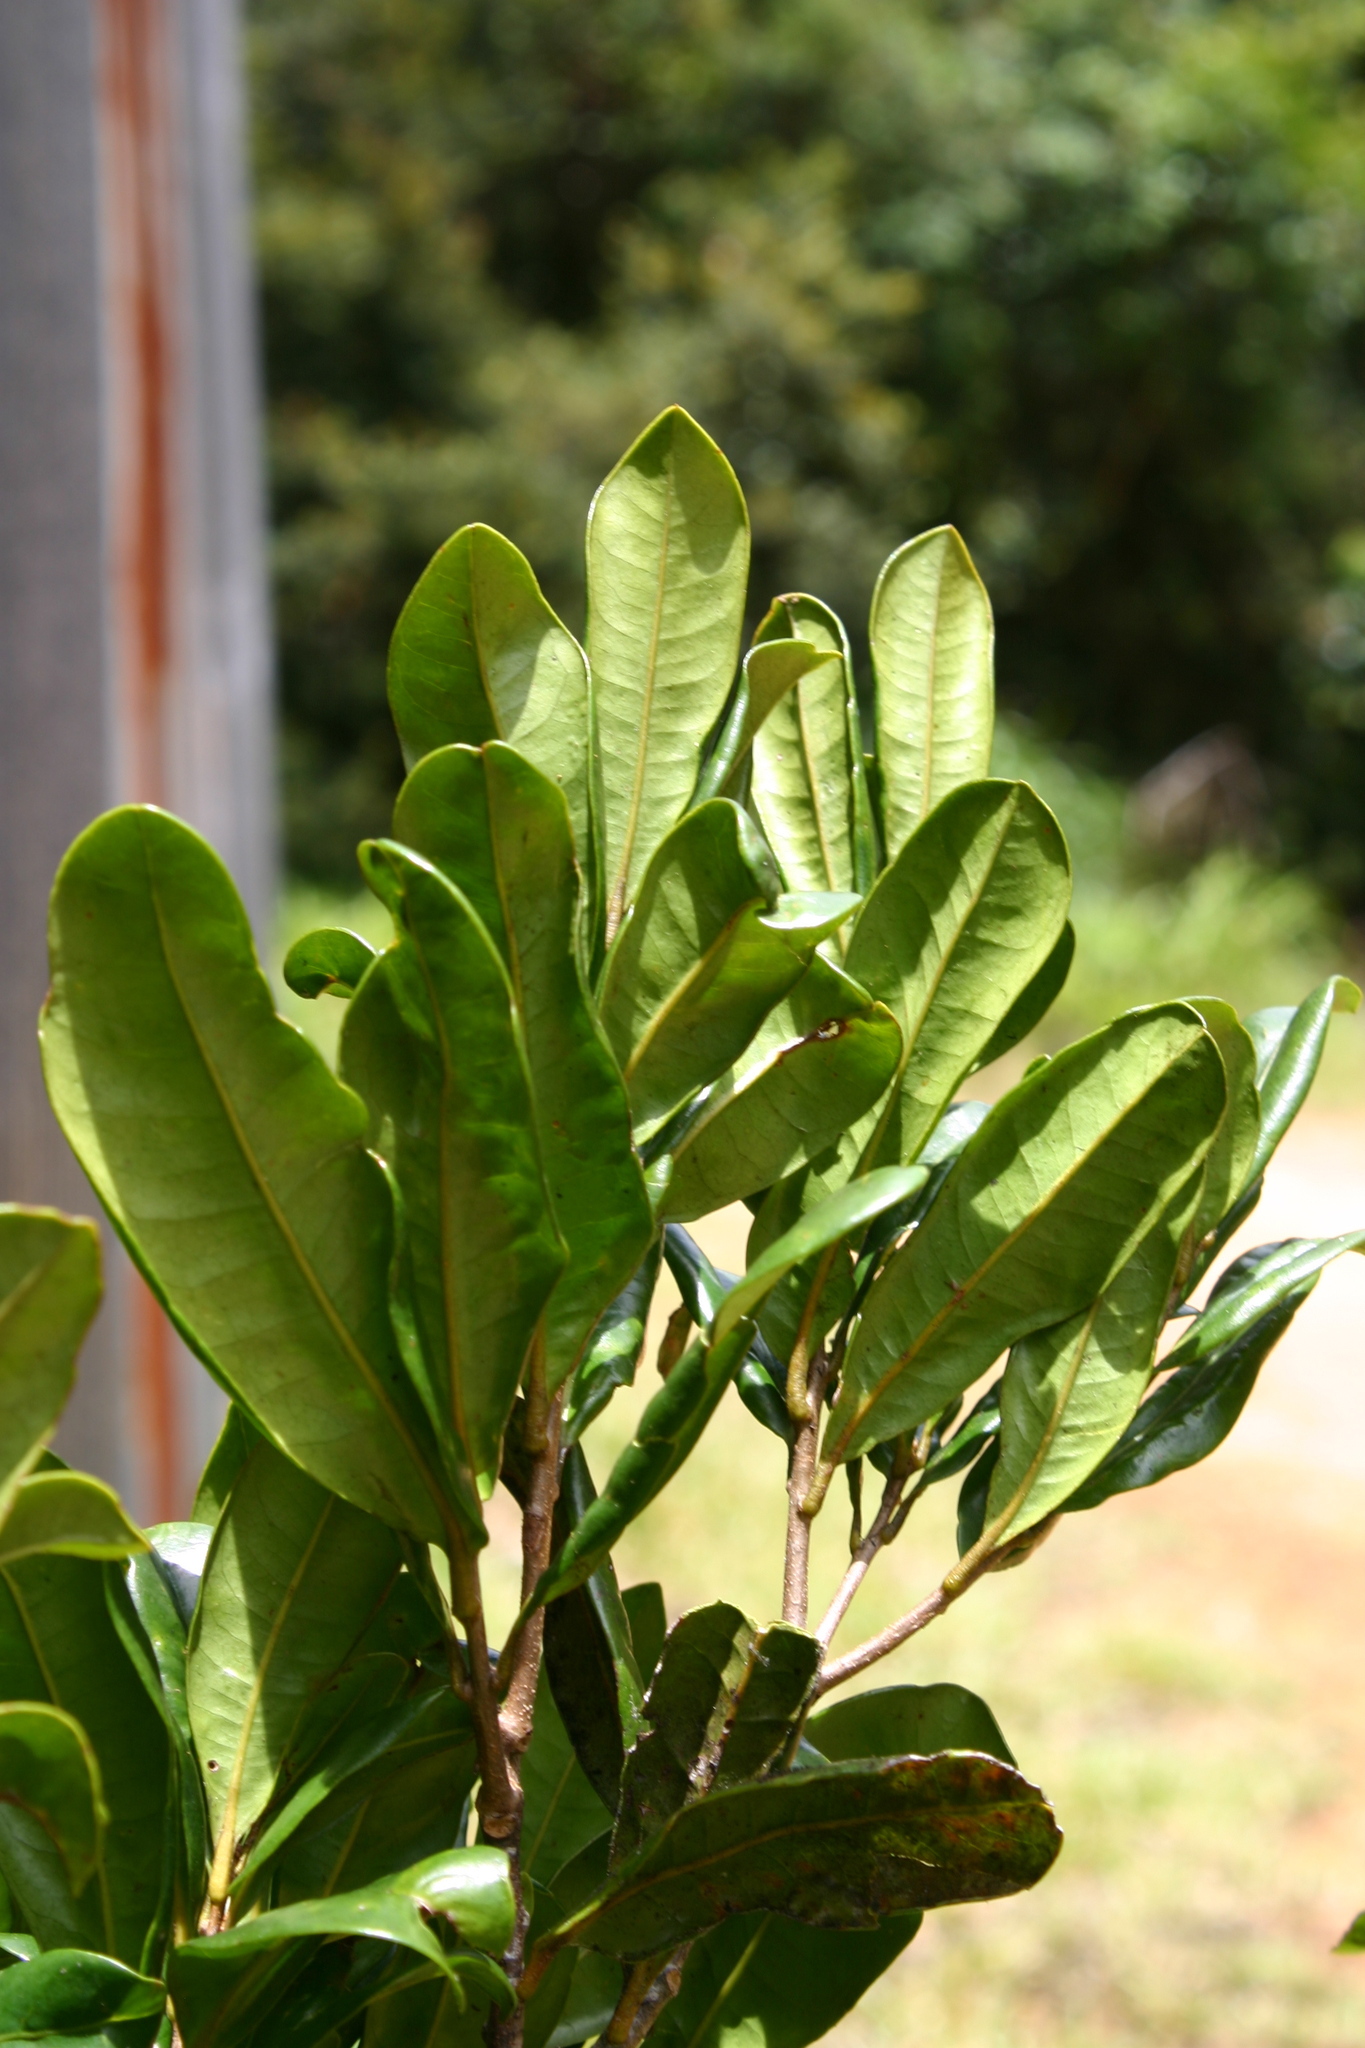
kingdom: Plantae
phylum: Tracheophyta
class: Magnoliopsida
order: Proteales
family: Proteaceae
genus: Nothorites
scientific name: Nothorites megacarpus
